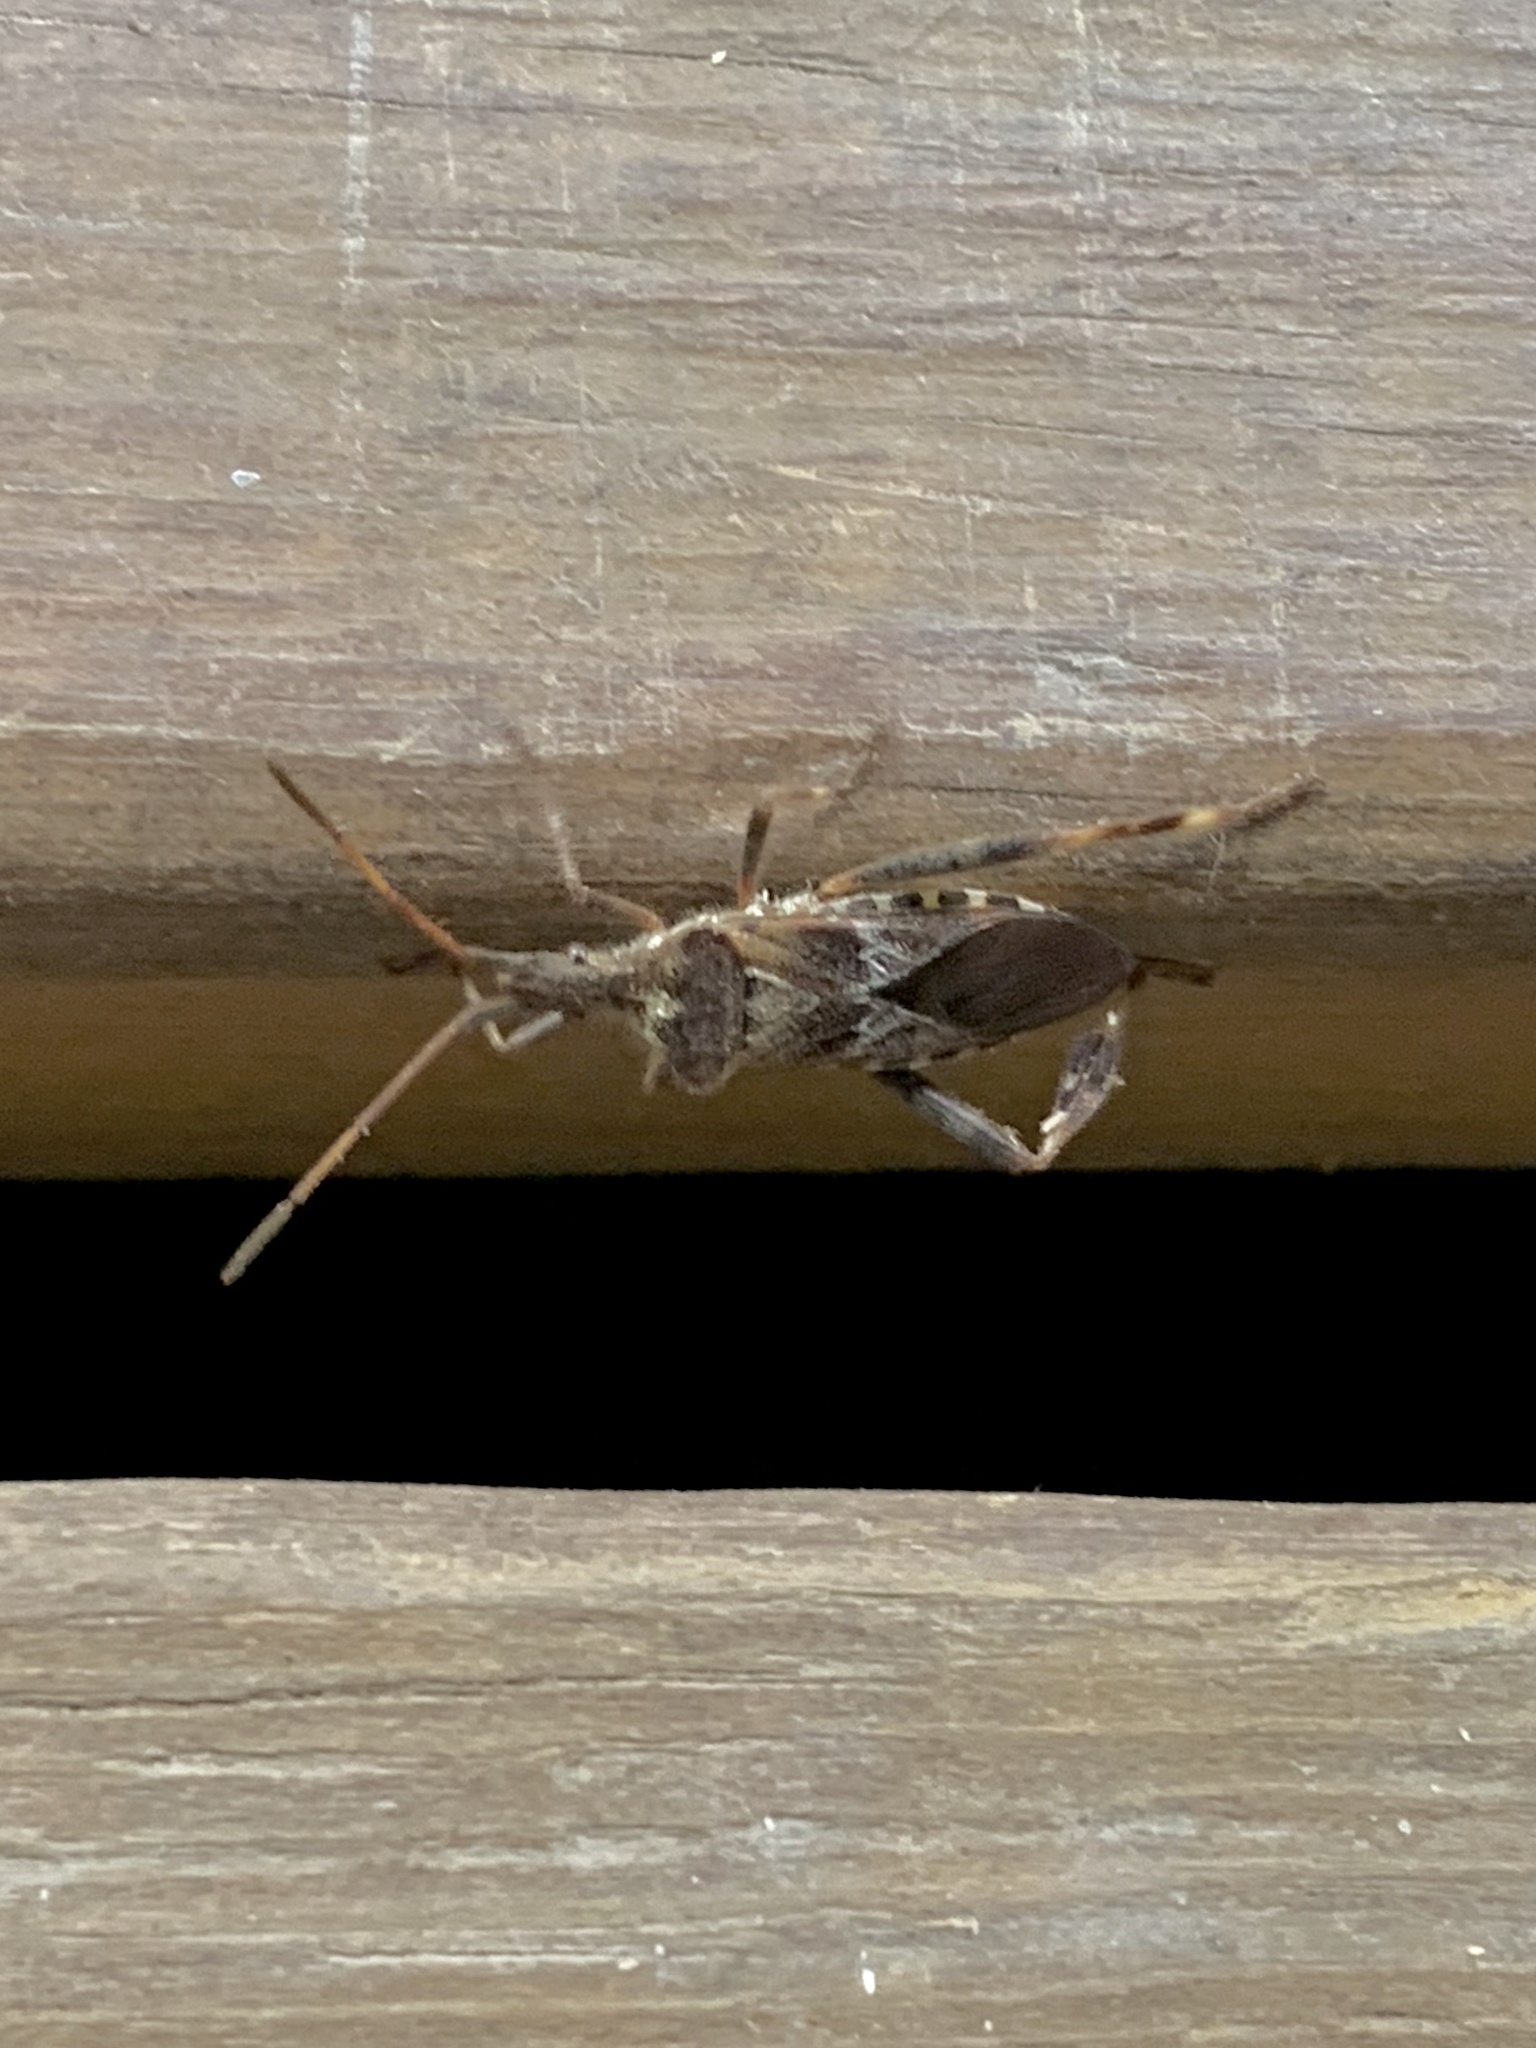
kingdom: Animalia
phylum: Arthropoda
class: Insecta
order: Hemiptera
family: Coreidae
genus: Leptoglossus
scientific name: Leptoglossus occidentalis
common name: Western conifer-seed bug
